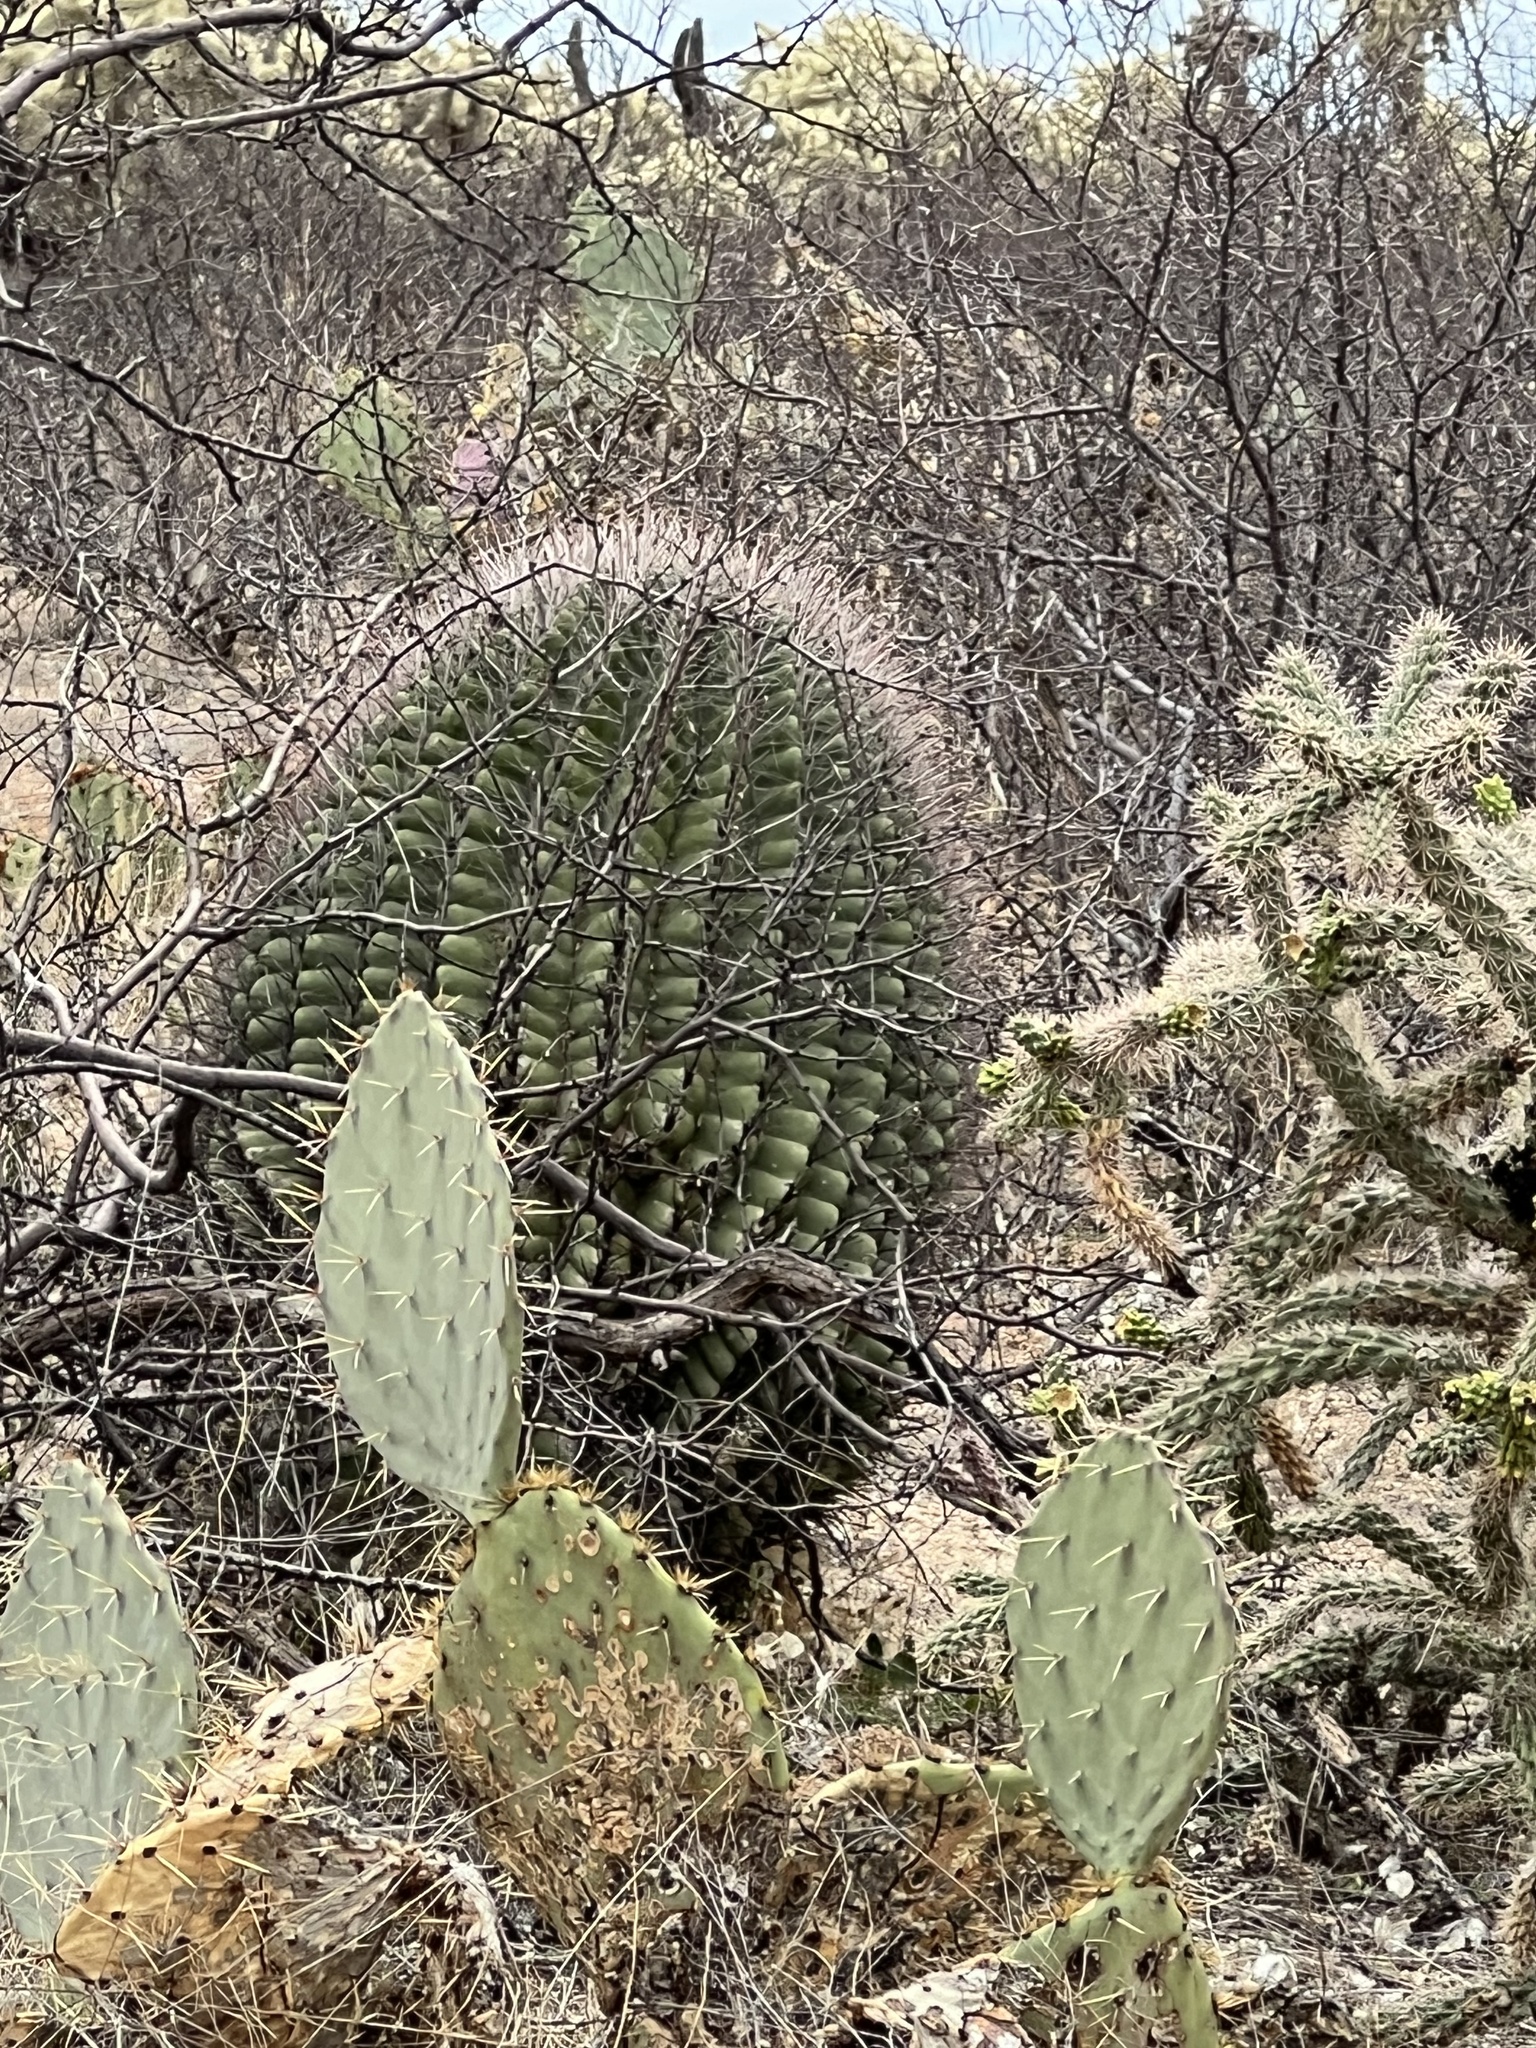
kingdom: Plantae
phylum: Tracheophyta
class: Magnoliopsida
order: Caryophyllales
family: Cactaceae
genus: Ferocactus
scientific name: Ferocactus wislizeni
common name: Candy barrel cactus
